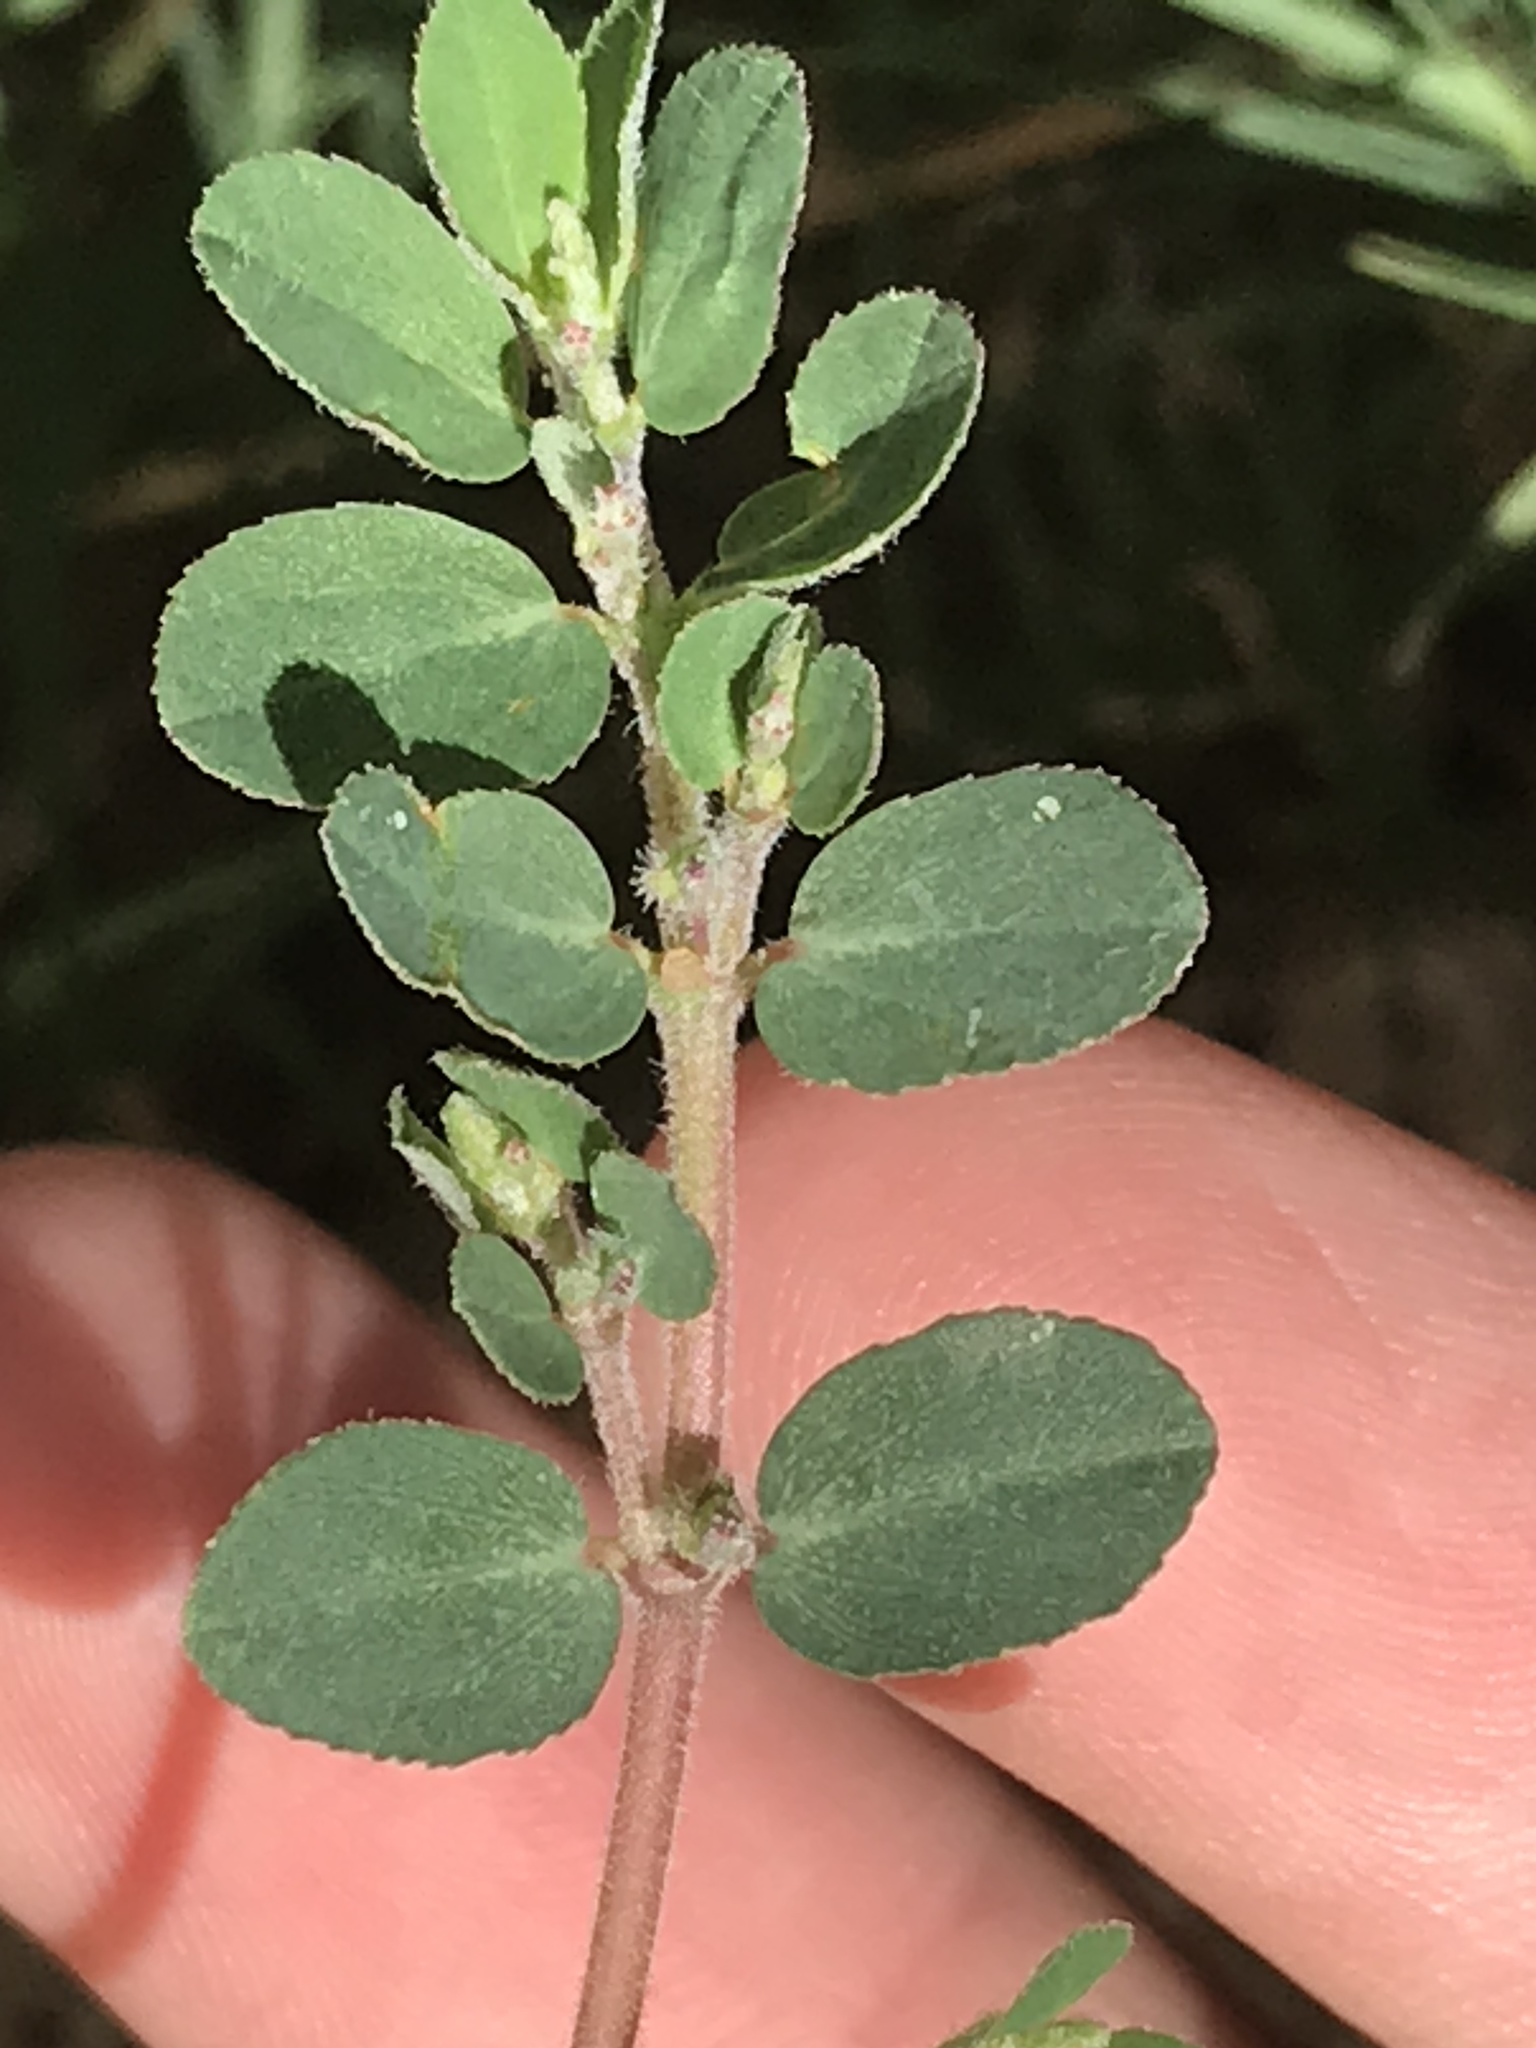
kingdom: Plantae
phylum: Tracheophyta
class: Magnoliopsida
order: Malpighiales
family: Euphorbiaceae
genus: Euphorbia
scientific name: Euphorbia prostrata
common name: Prostrate sandmat
